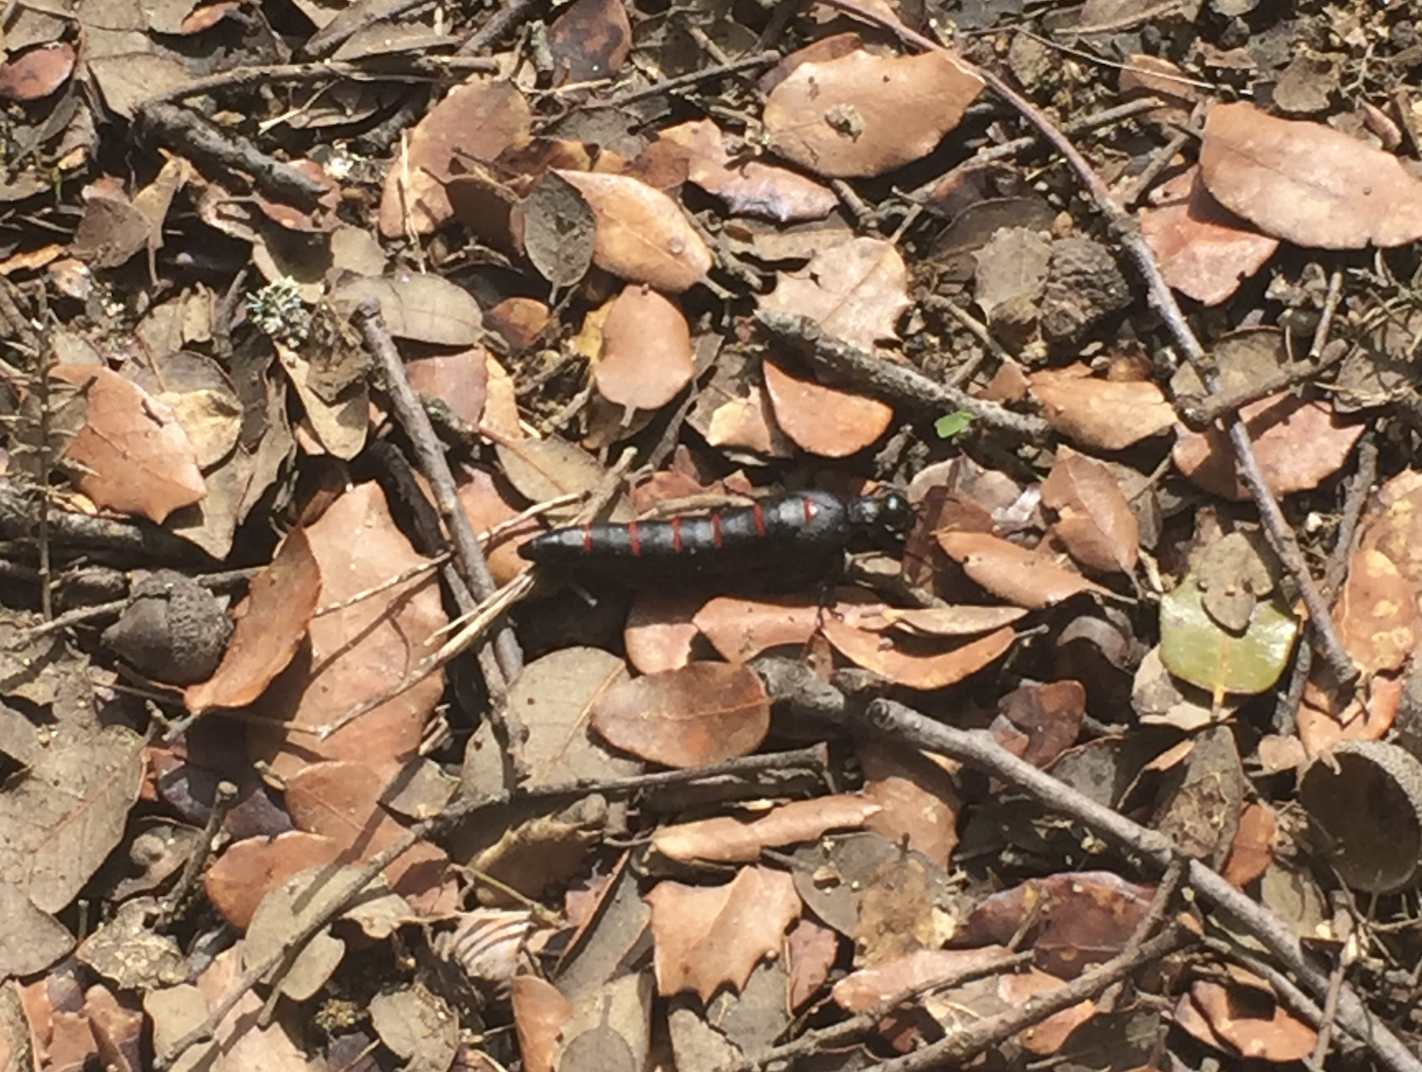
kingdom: Animalia
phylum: Arthropoda
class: Insecta
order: Coleoptera
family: Meloidae
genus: Berberomeloe
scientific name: Berberomeloe castuo
